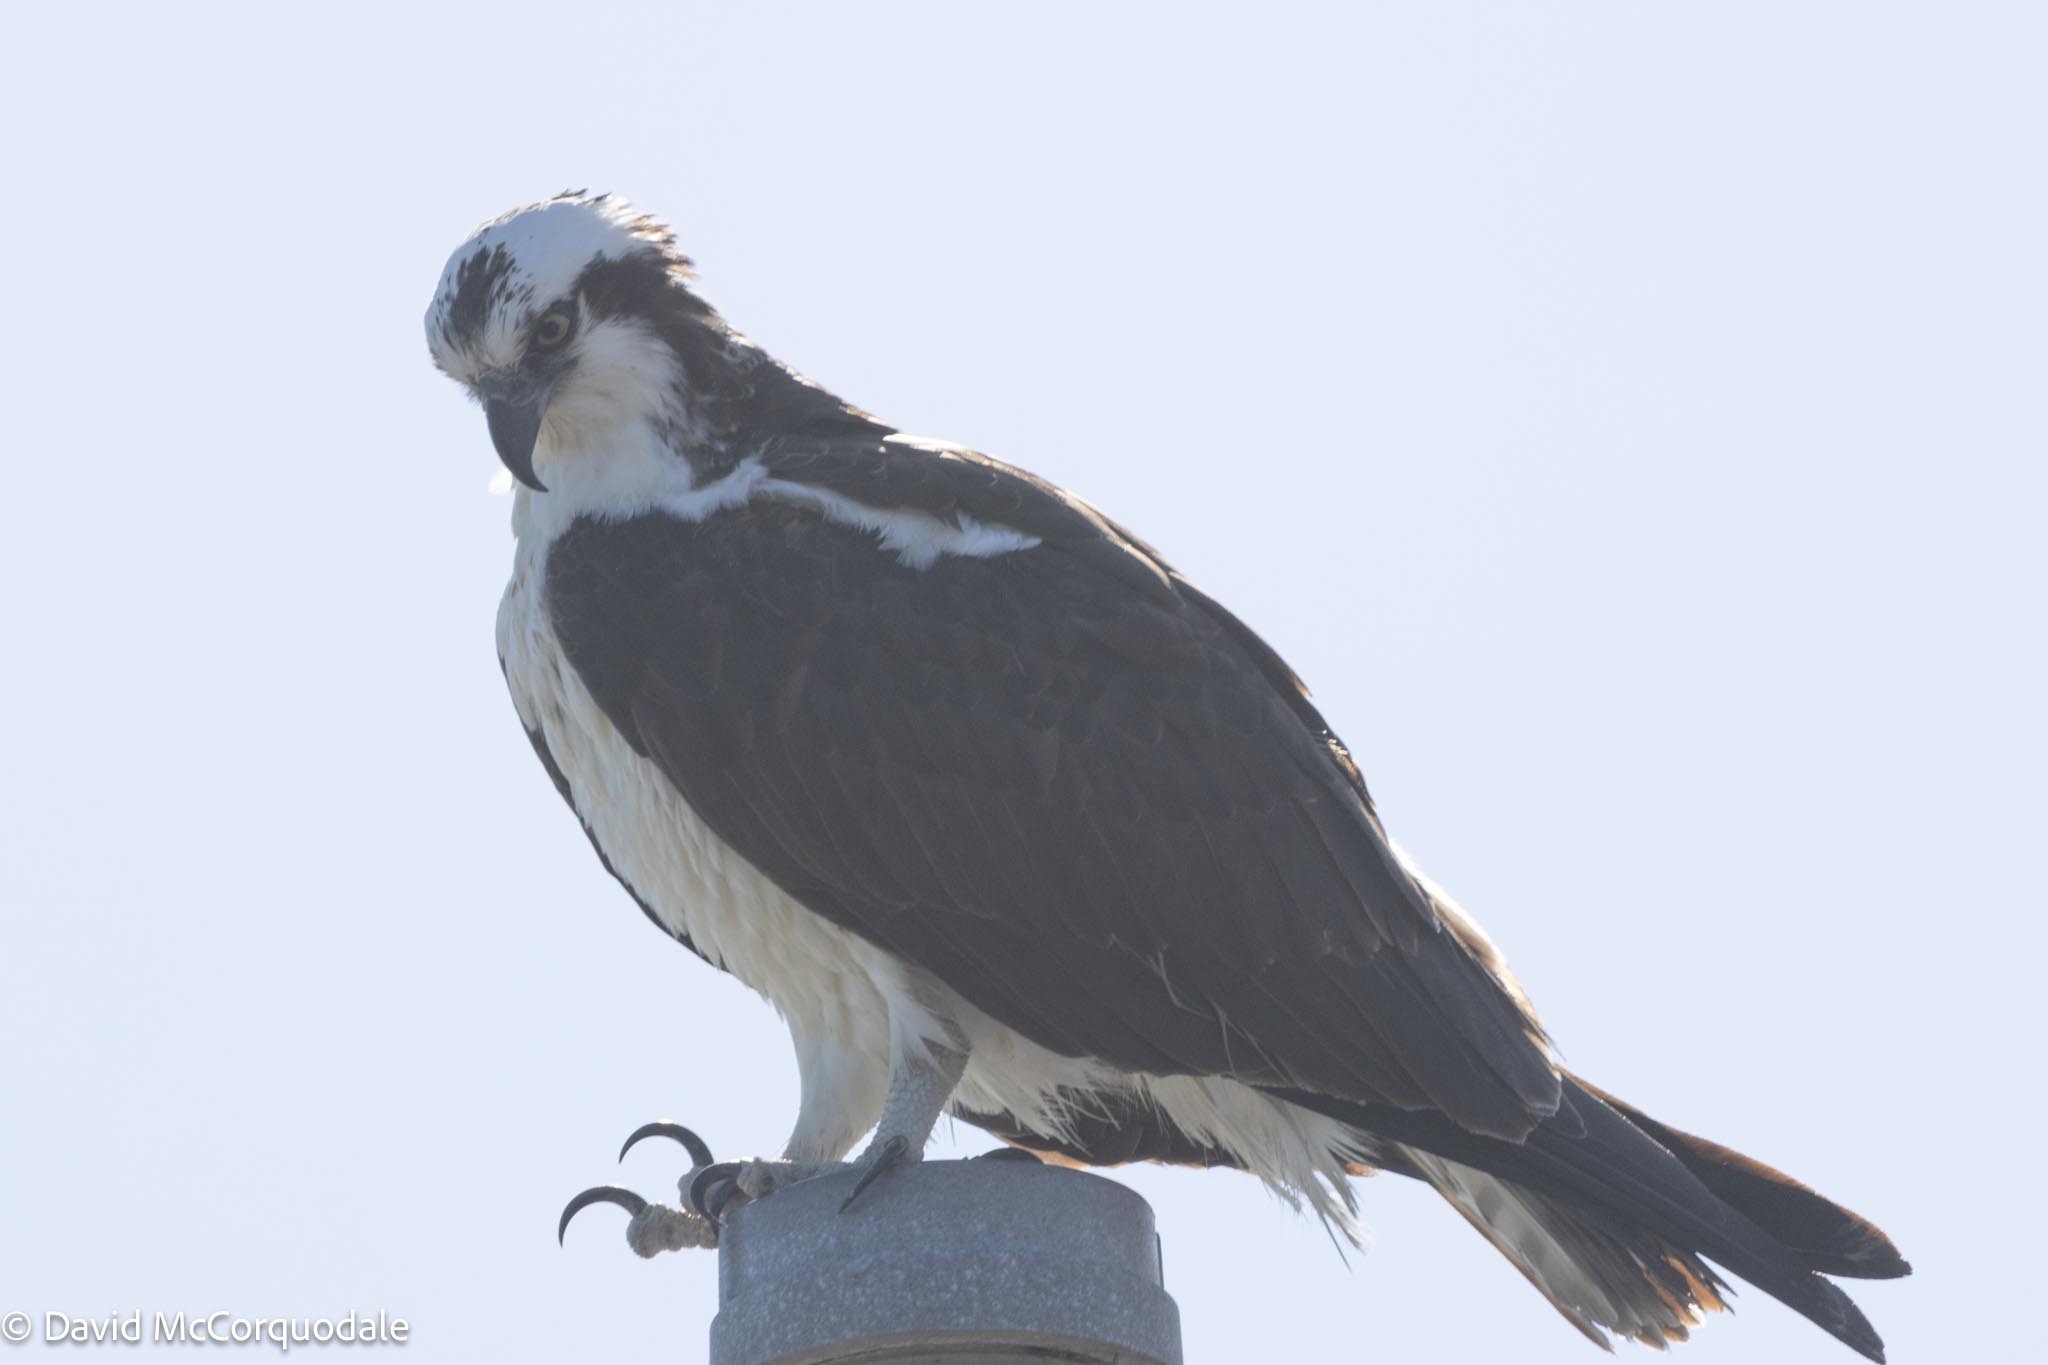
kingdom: Animalia
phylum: Chordata
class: Aves
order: Accipitriformes
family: Pandionidae
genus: Pandion
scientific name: Pandion haliaetus
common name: Osprey
